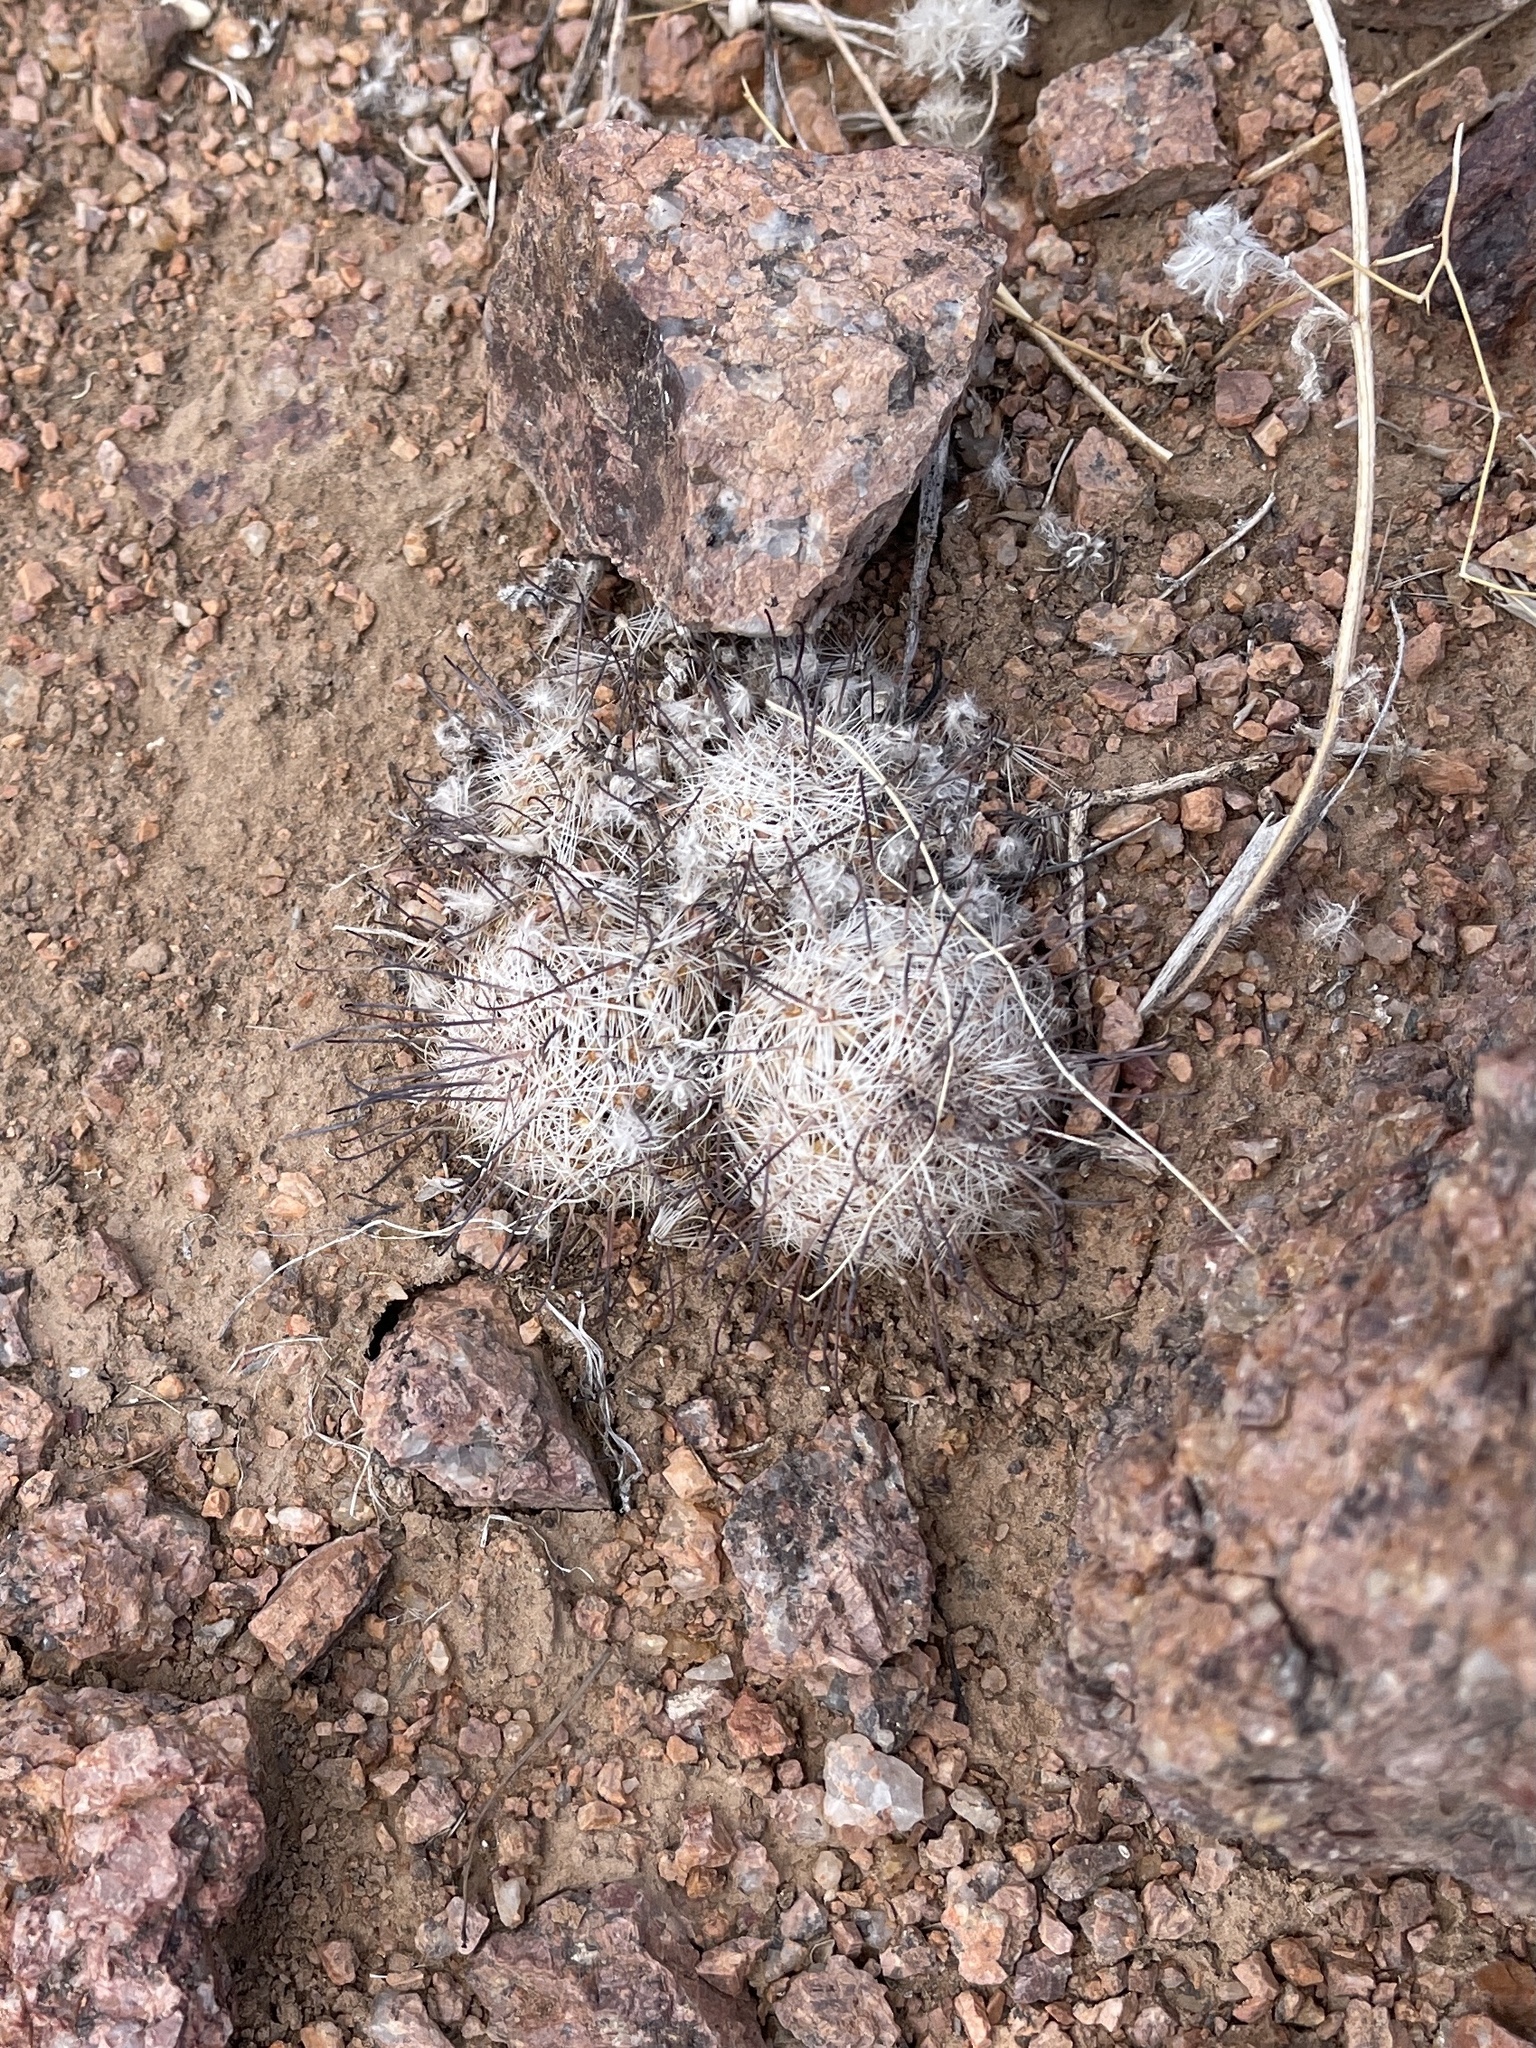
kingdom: Plantae
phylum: Tracheophyta
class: Magnoliopsida
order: Caryophyllales
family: Cactaceae
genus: Cochemiea
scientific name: Cochemiea grahamii
